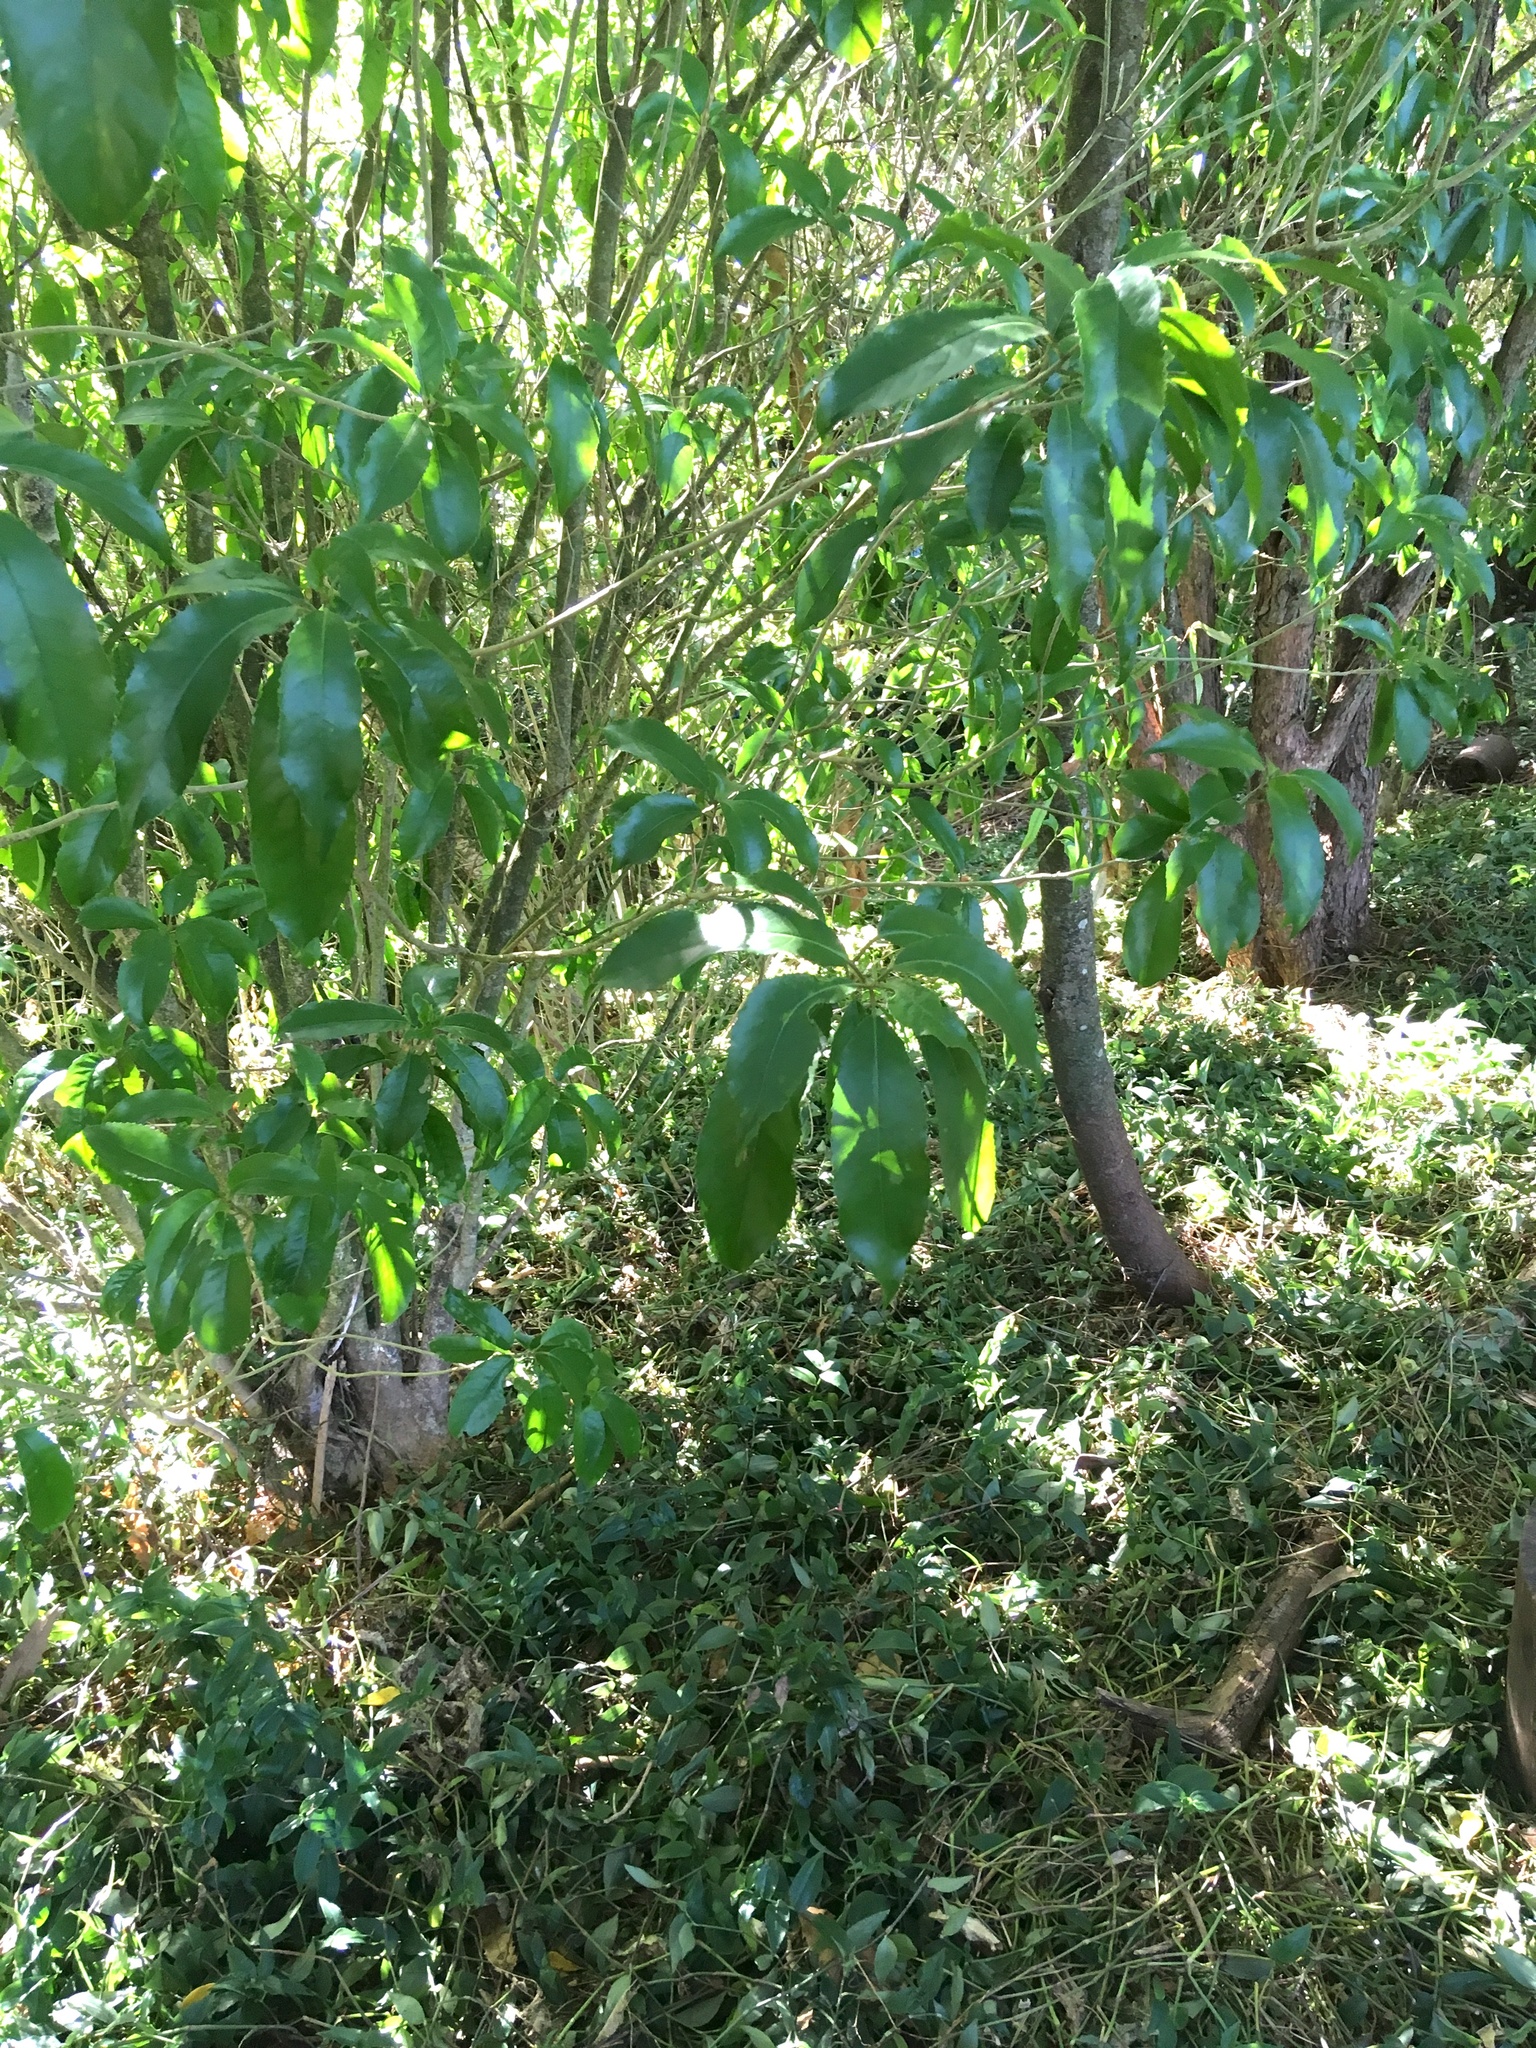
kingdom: Plantae
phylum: Tracheophyta
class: Magnoliopsida
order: Malpighiales
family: Violaceae
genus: Melicytus
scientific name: Melicytus ramiflorus
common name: Mahoe
